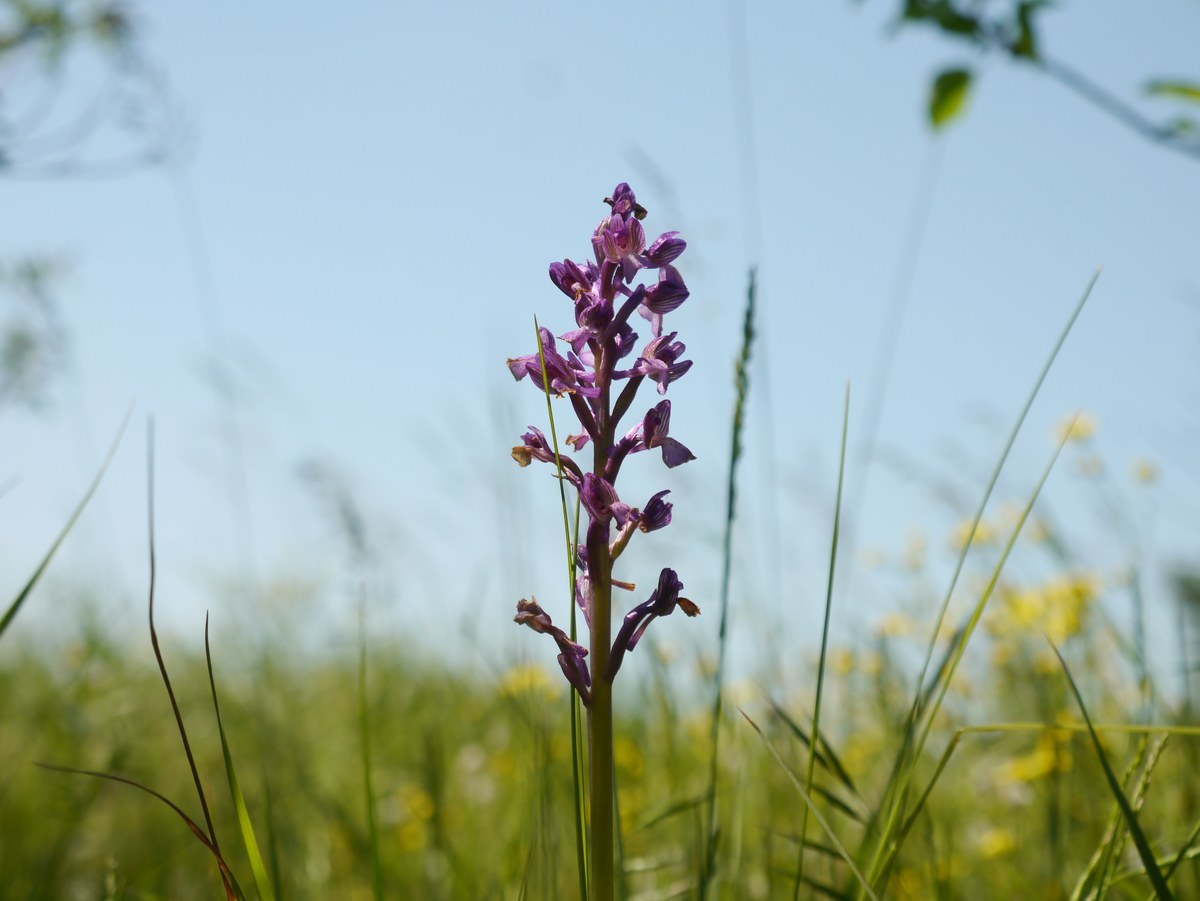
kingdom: Plantae
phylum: Tracheophyta
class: Liliopsida
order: Asparagales
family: Orchidaceae
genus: Anacamptis
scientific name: Anacamptis morio
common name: Green-winged orchid
